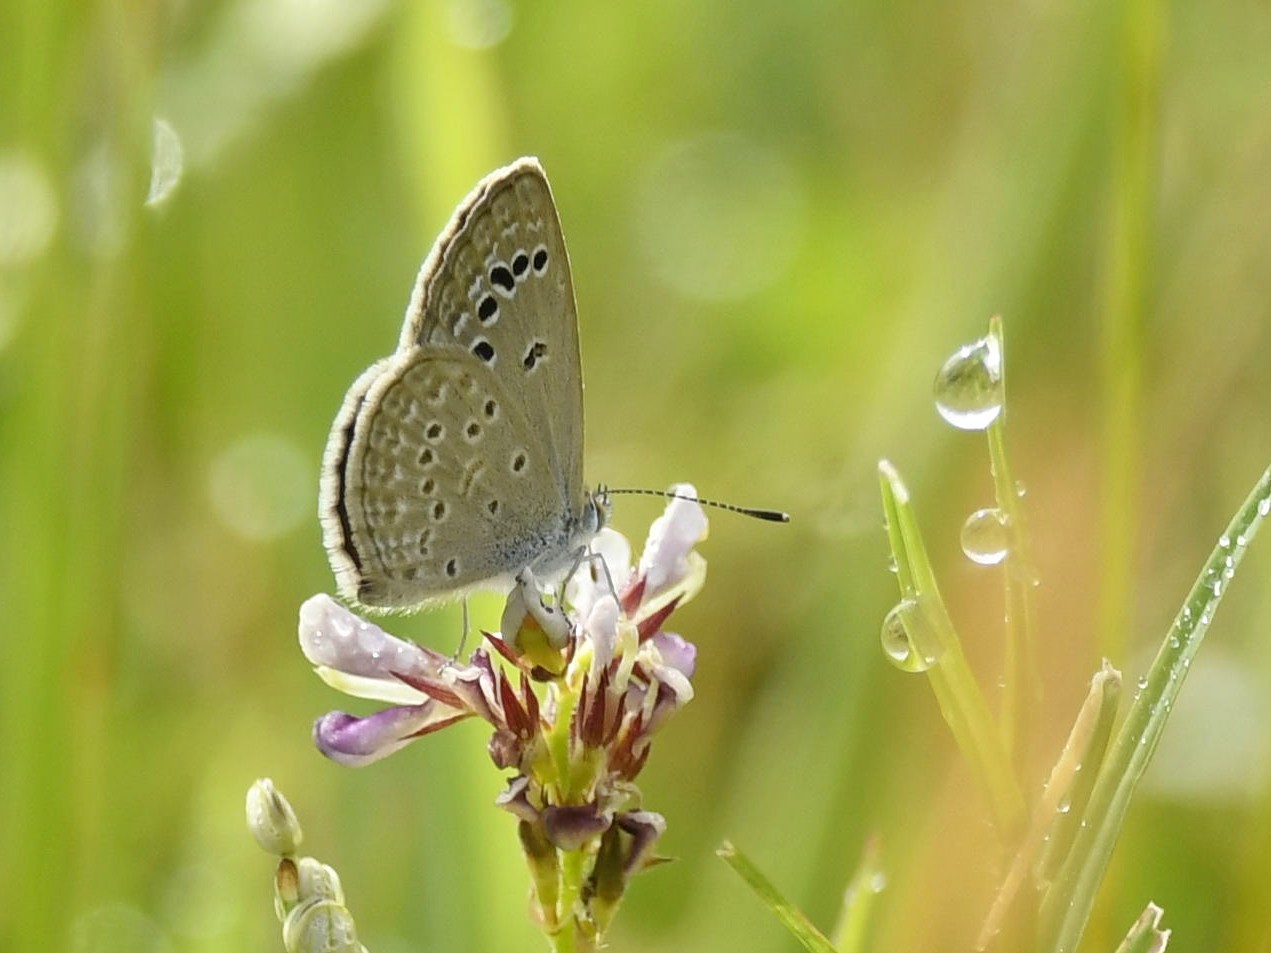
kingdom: Animalia
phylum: Arthropoda
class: Insecta
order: Lepidoptera
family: Lycaenidae
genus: Zizina
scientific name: Zizina otis
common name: Lesser grass blue
